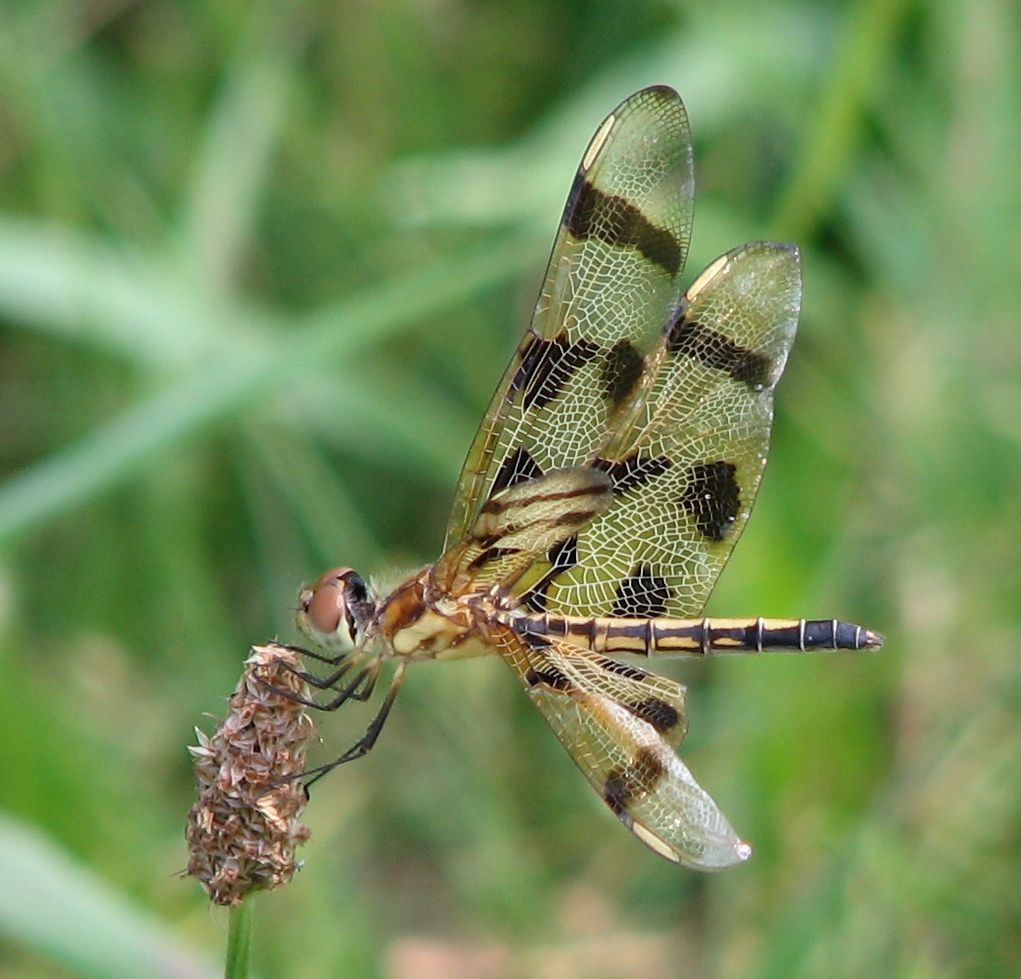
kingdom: Animalia
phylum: Arthropoda
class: Insecta
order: Odonata
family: Libellulidae
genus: Celithemis
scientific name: Celithemis eponina
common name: Halloween pennant
